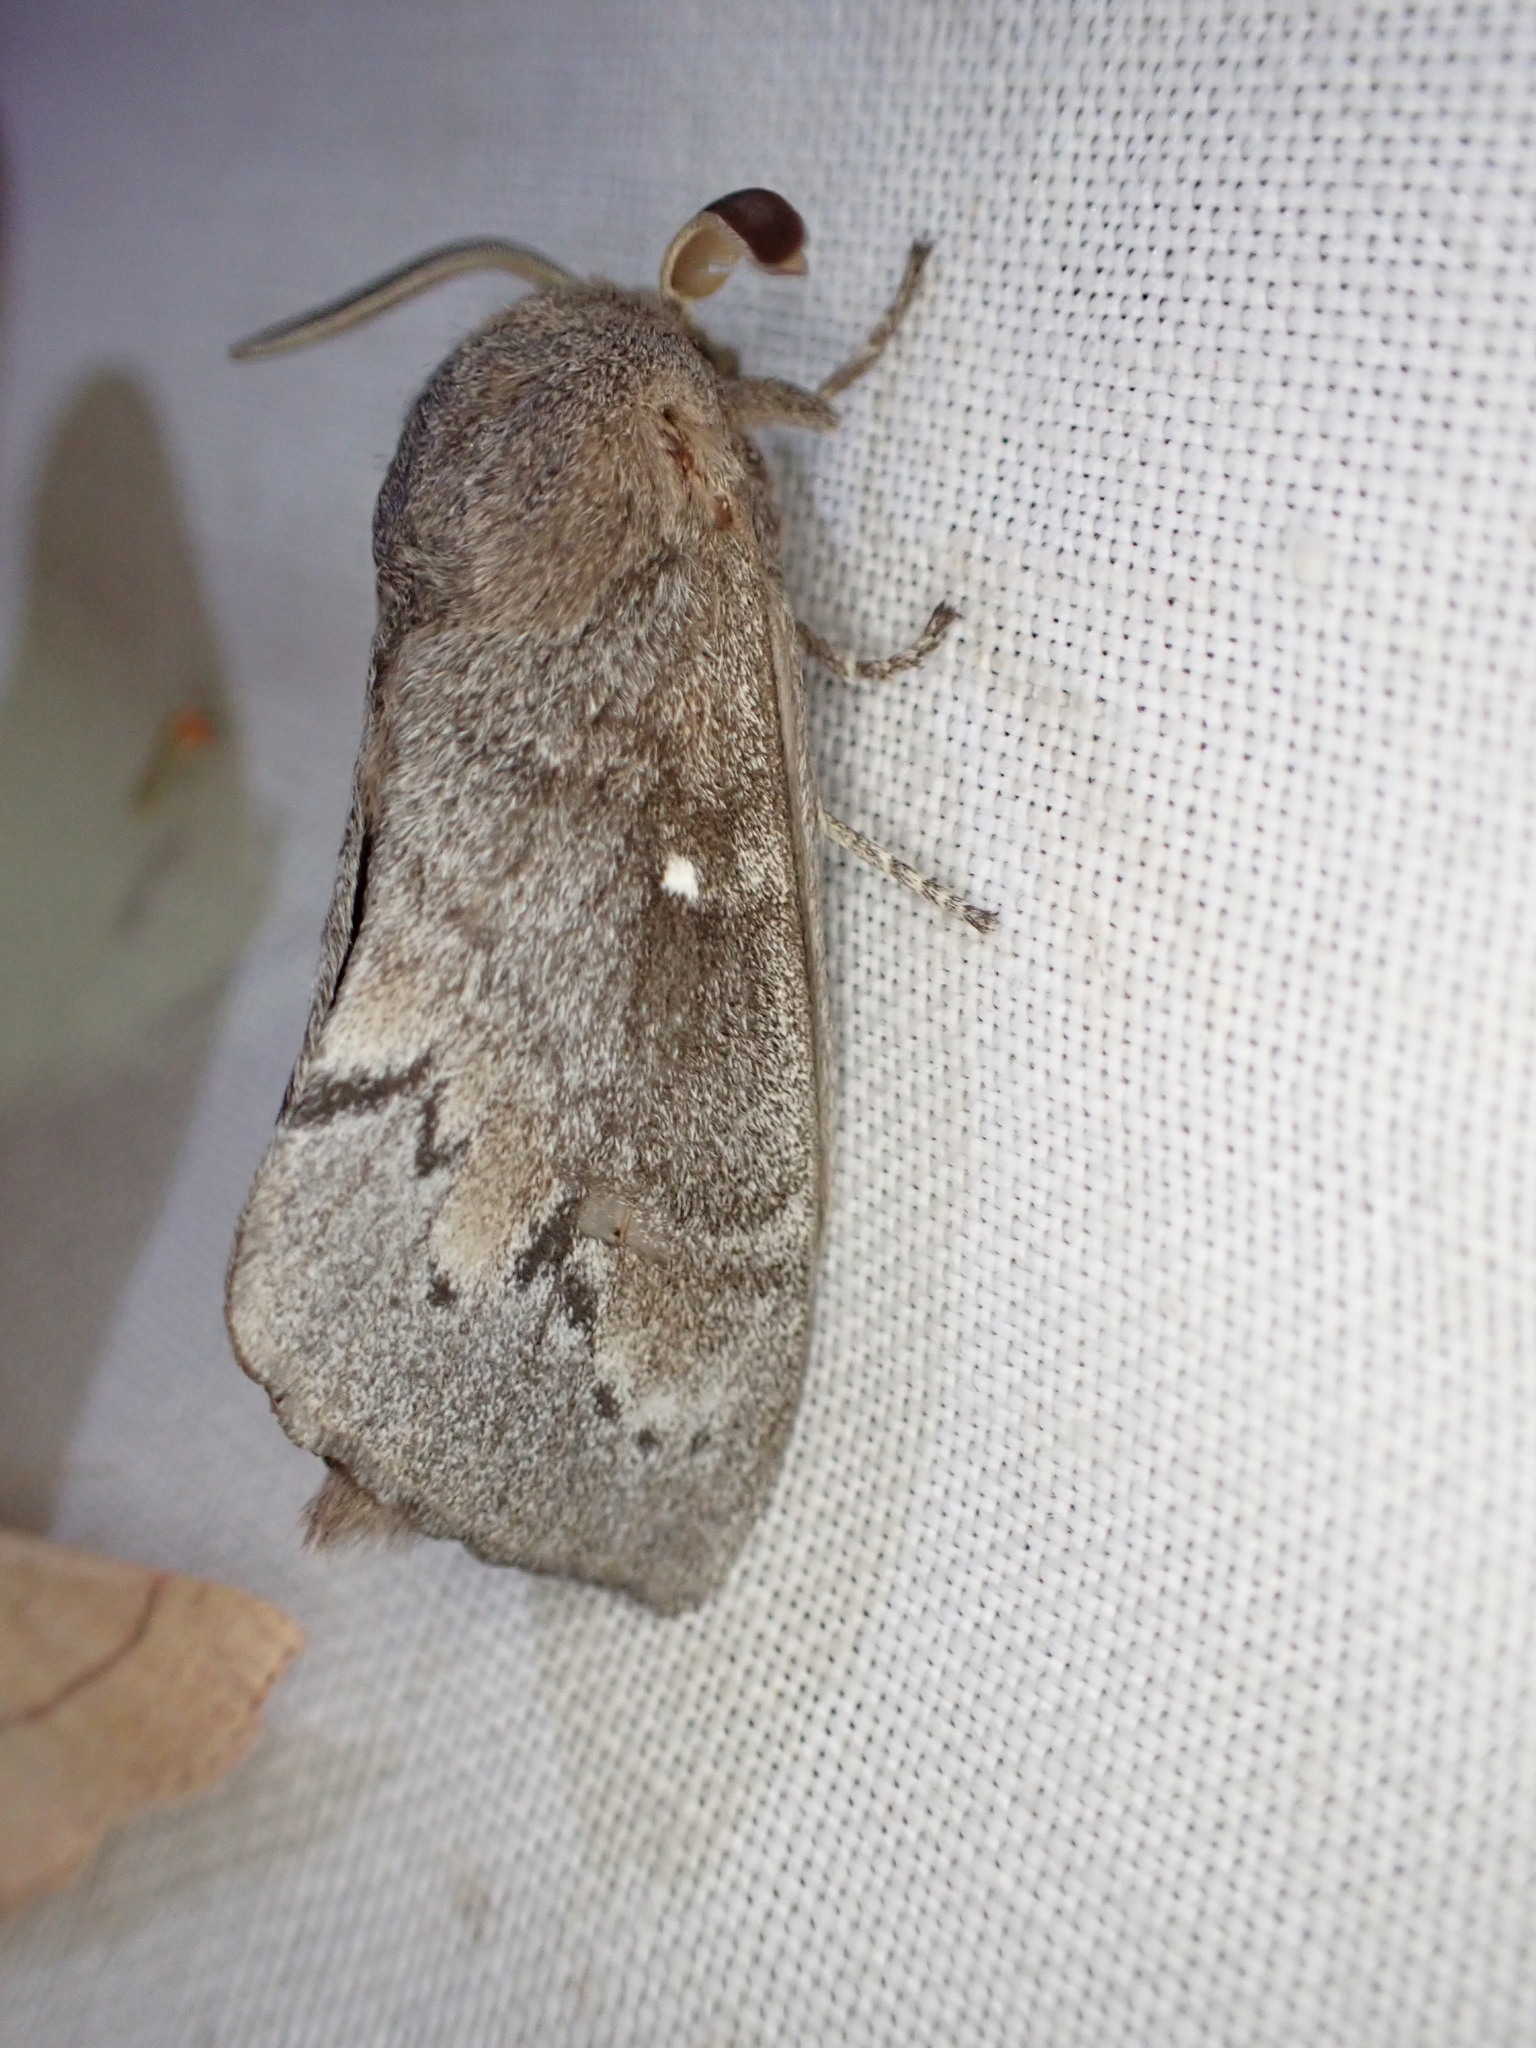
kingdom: Animalia
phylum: Arthropoda
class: Insecta
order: Lepidoptera
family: Lasiocampidae
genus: Dendrolimus
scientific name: Dendrolimus pini
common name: Pine-tree lappet
